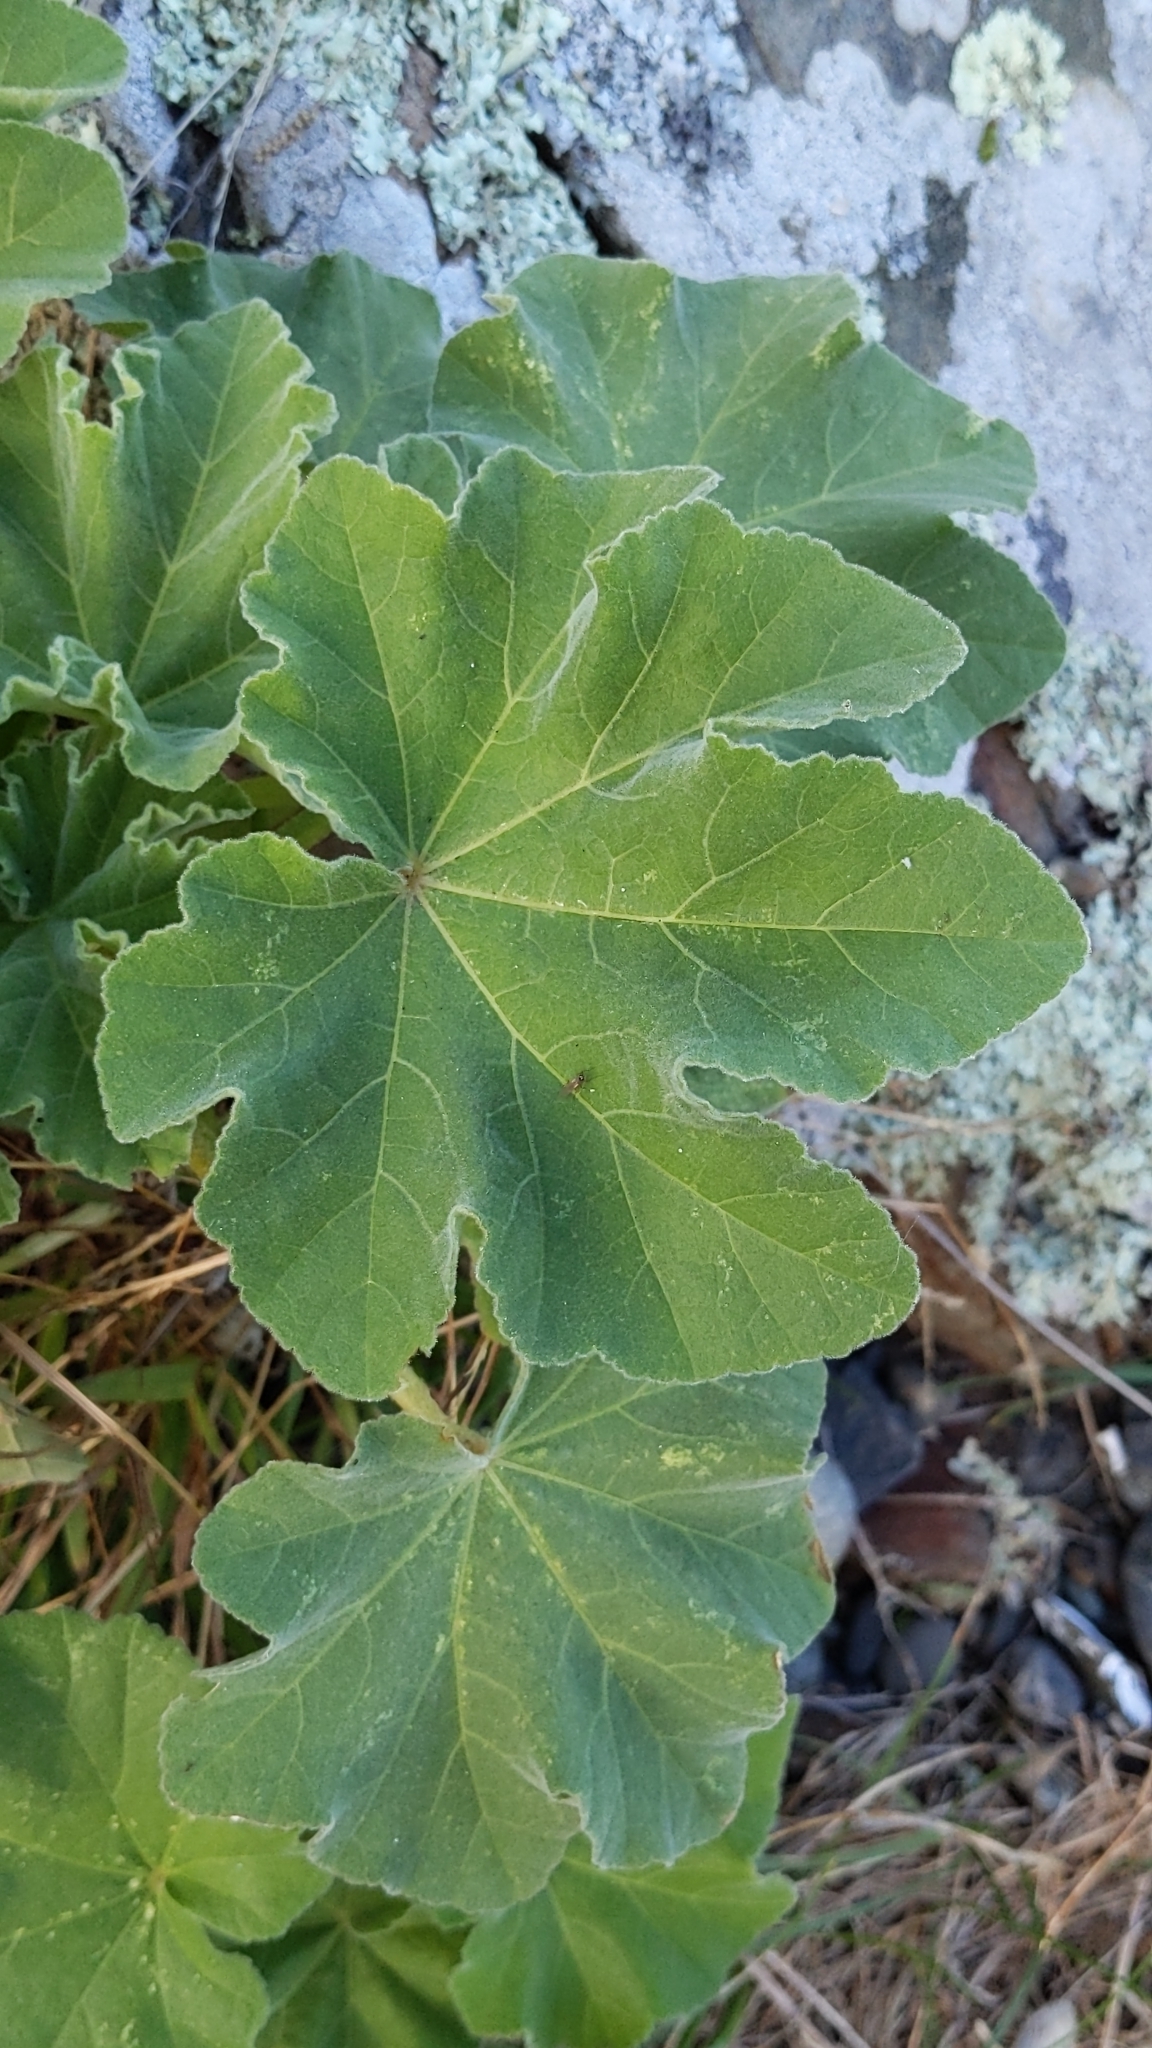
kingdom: Plantae
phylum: Tracheophyta
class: Magnoliopsida
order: Malvales
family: Malvaceae
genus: Malva
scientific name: Malva arborea
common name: Tree mallow
